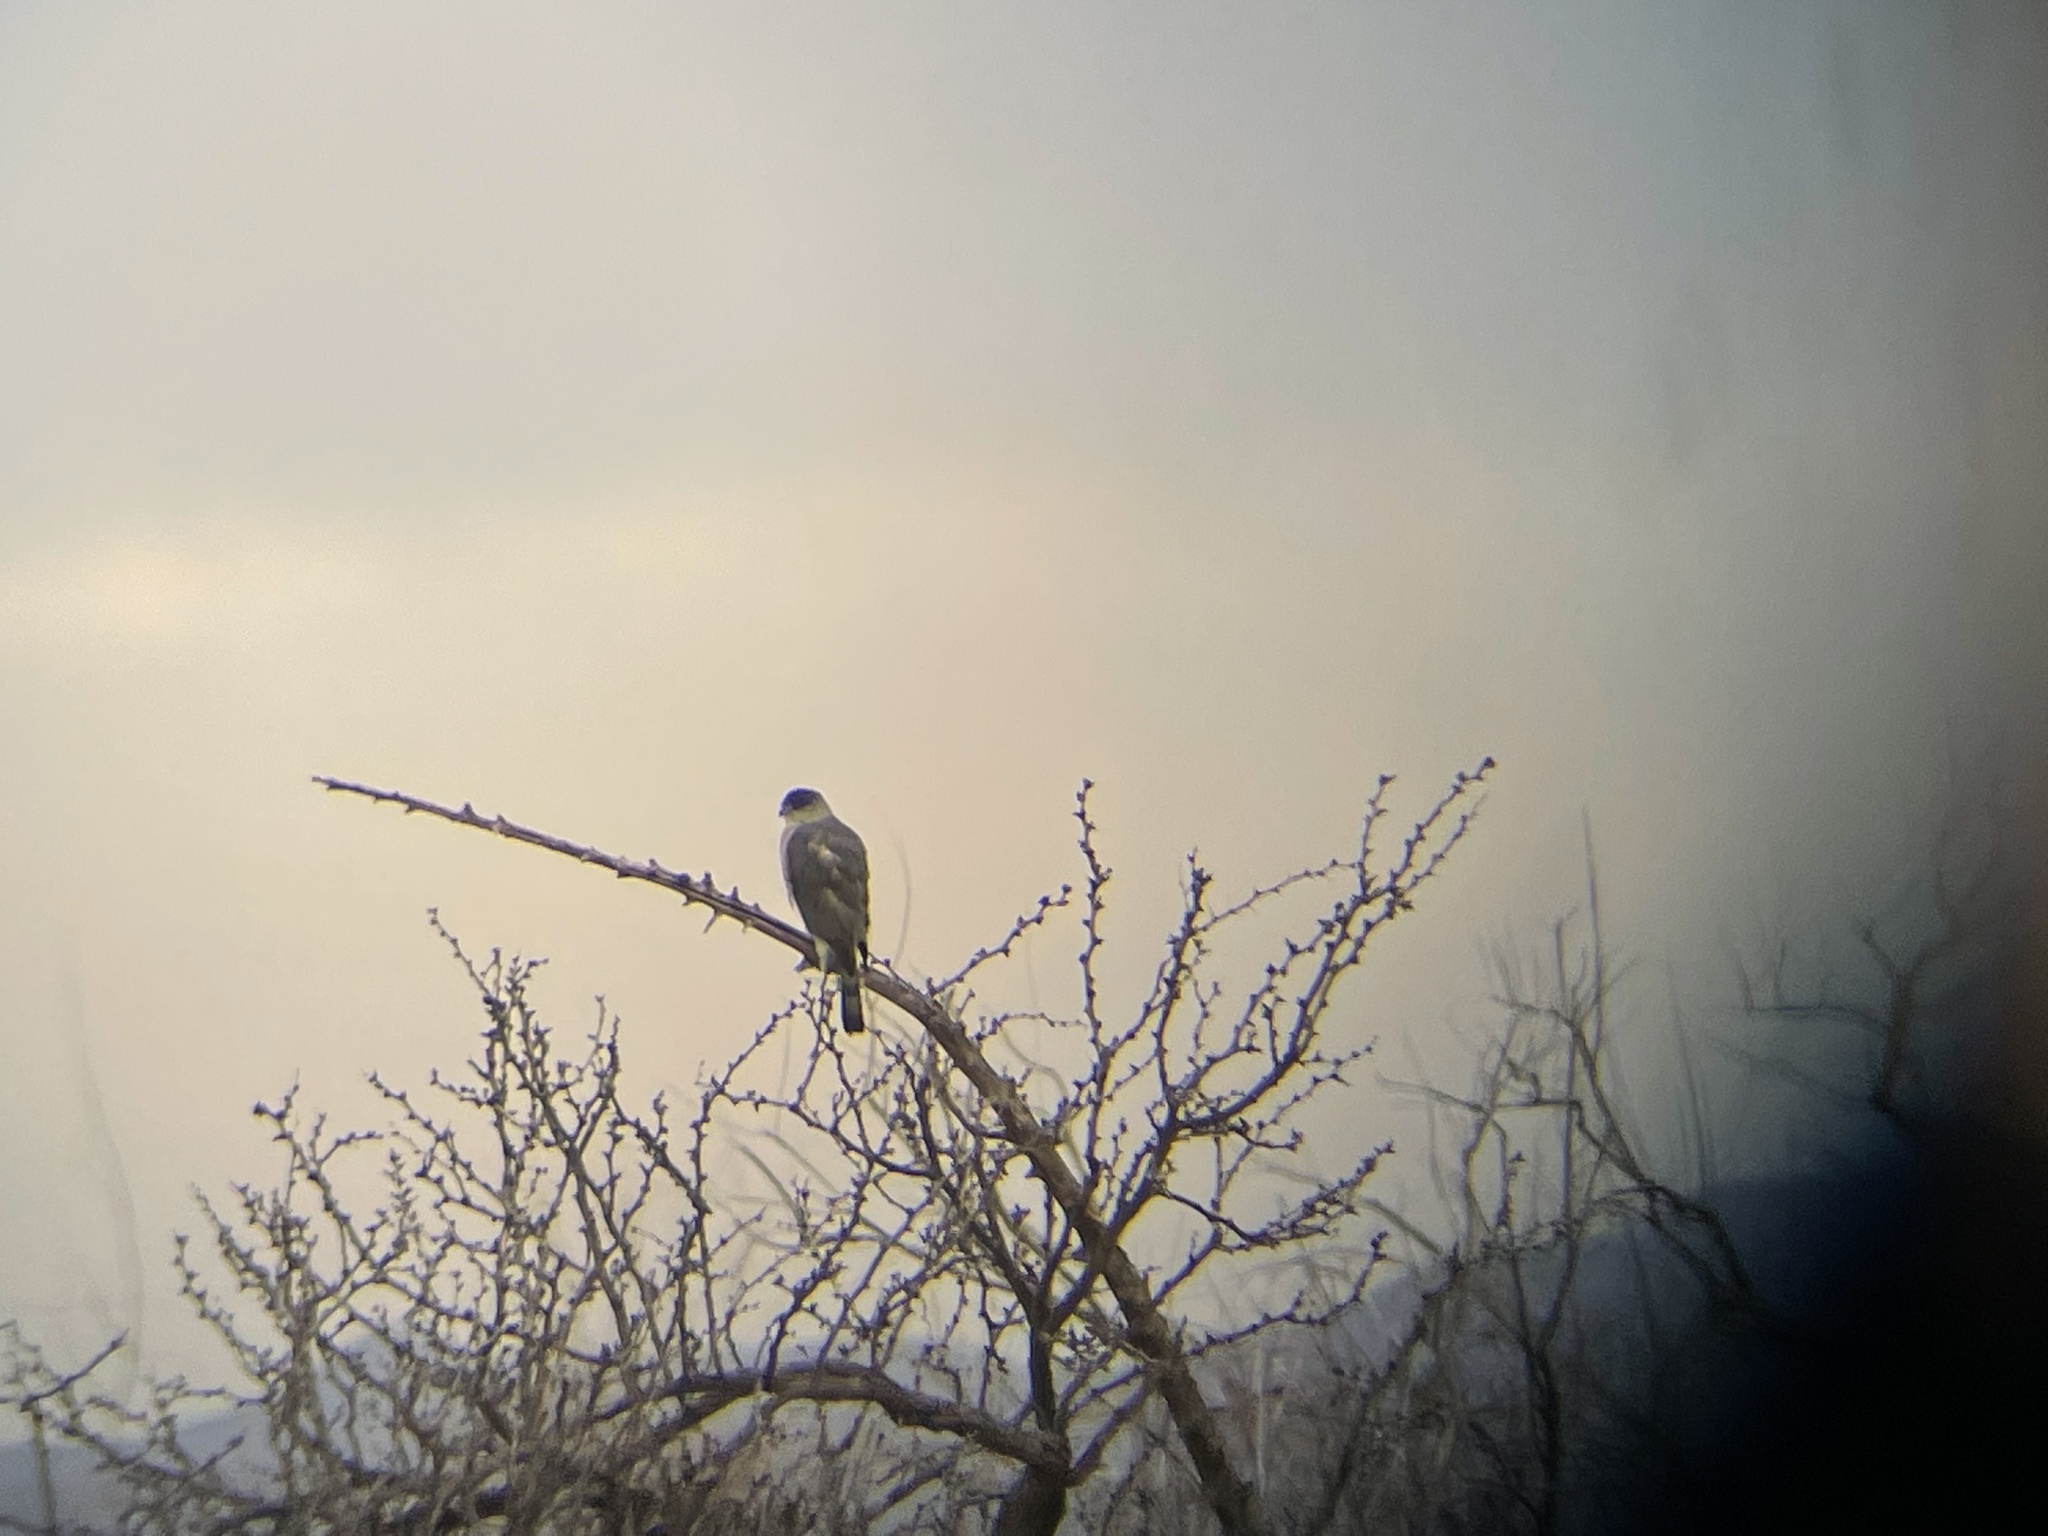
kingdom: Animalia
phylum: Chordata
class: Aves
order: Accipitriformes
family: Accipitridae
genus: Accipiter
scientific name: Accipiter cooperii
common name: Cooper's hawk
